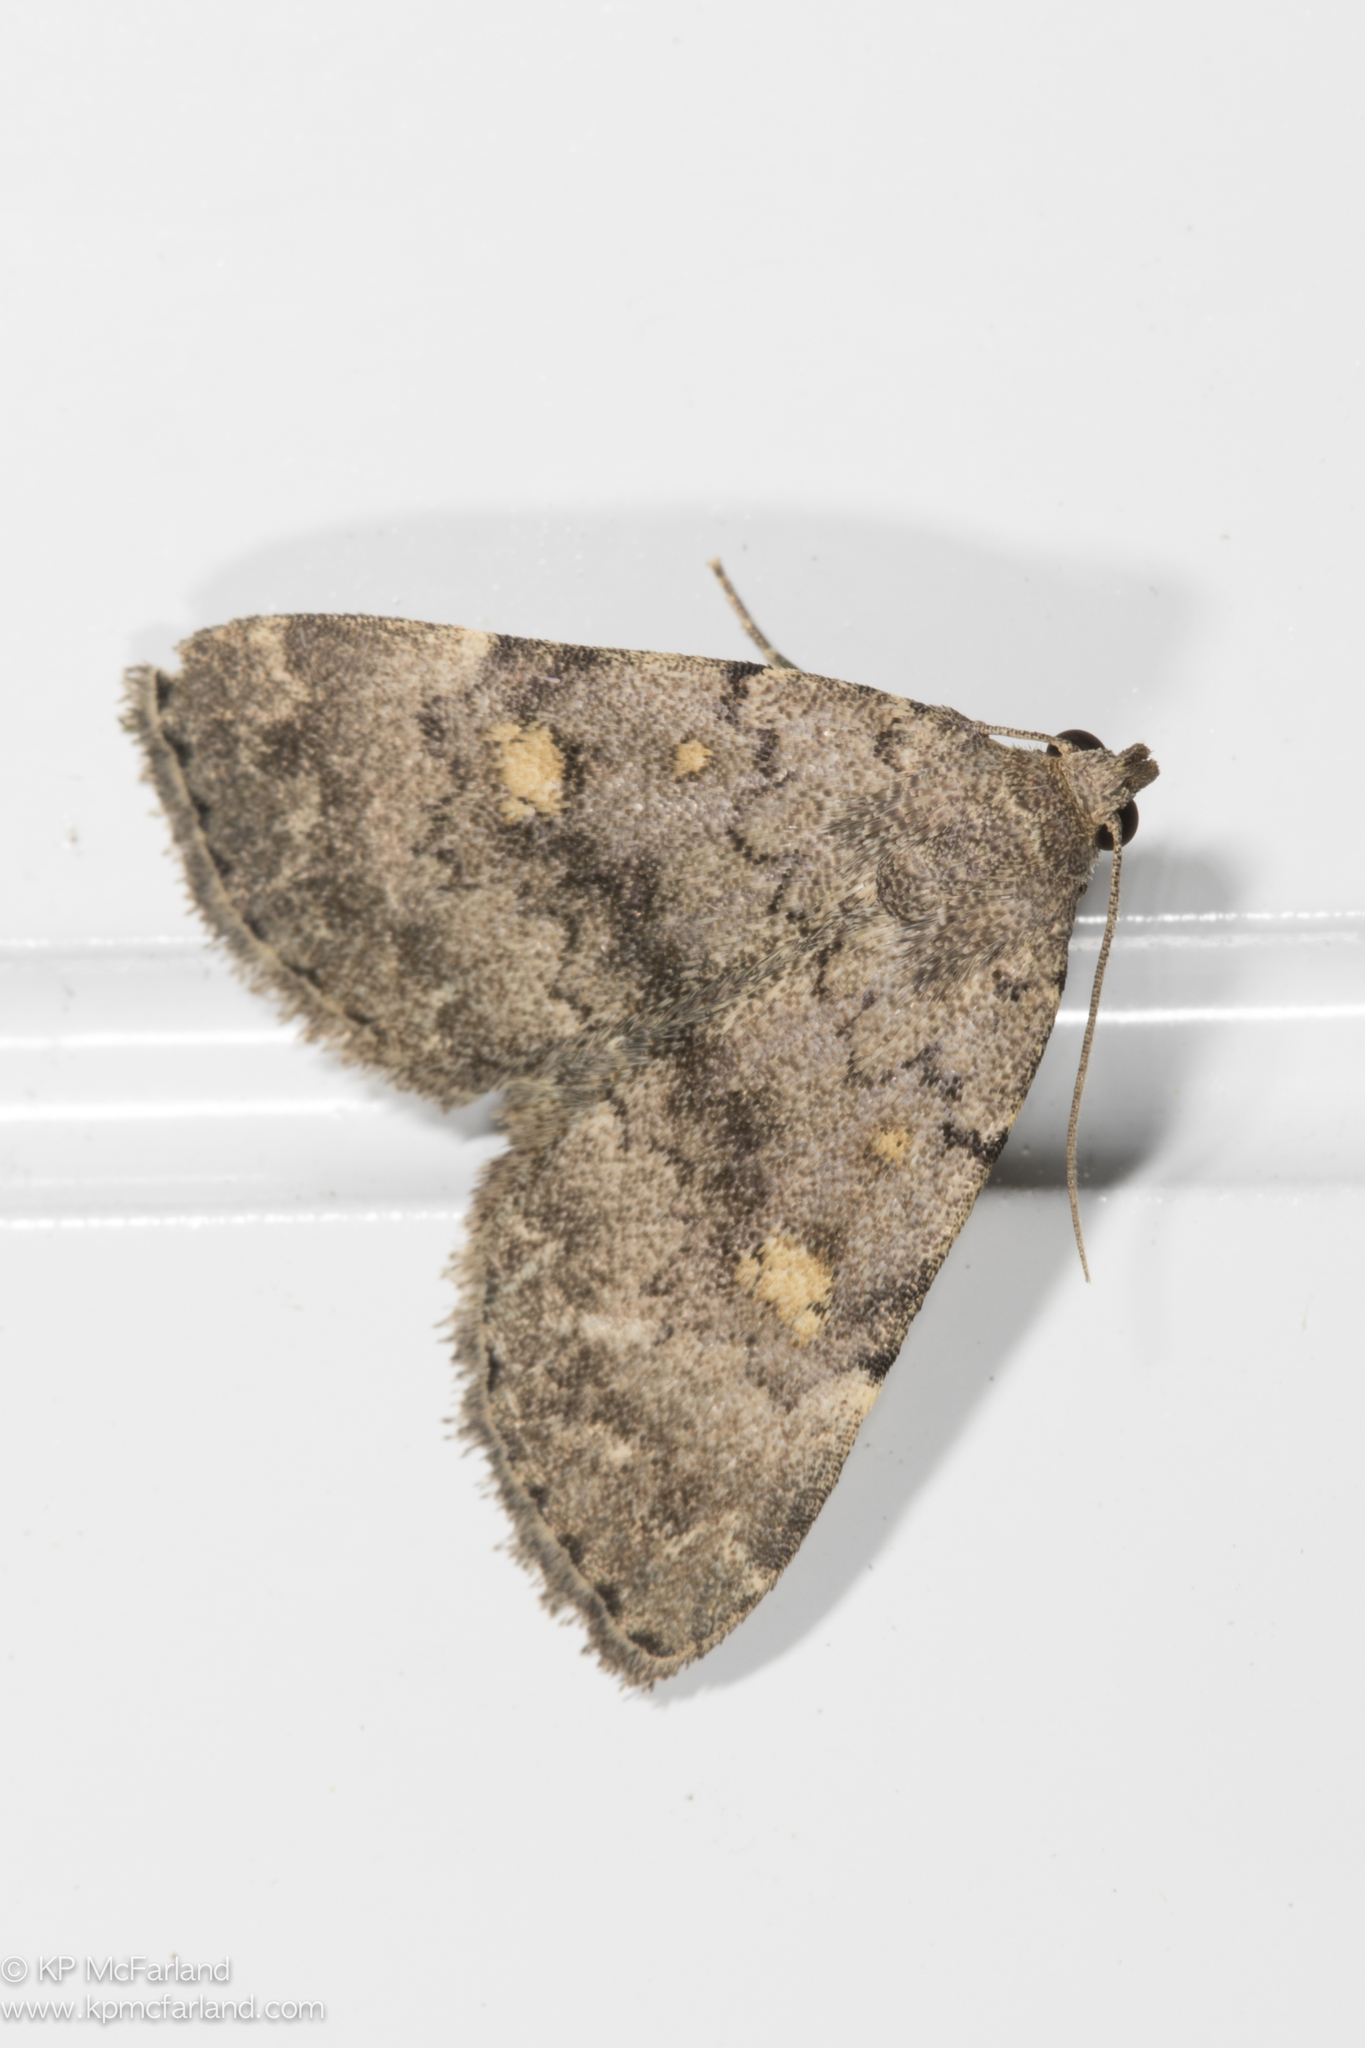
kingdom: Animalia
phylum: Arthropoda
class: Insecta
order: Lepidoptera
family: Erebidae
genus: Idia
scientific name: Idia aemula
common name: Common idia moth
